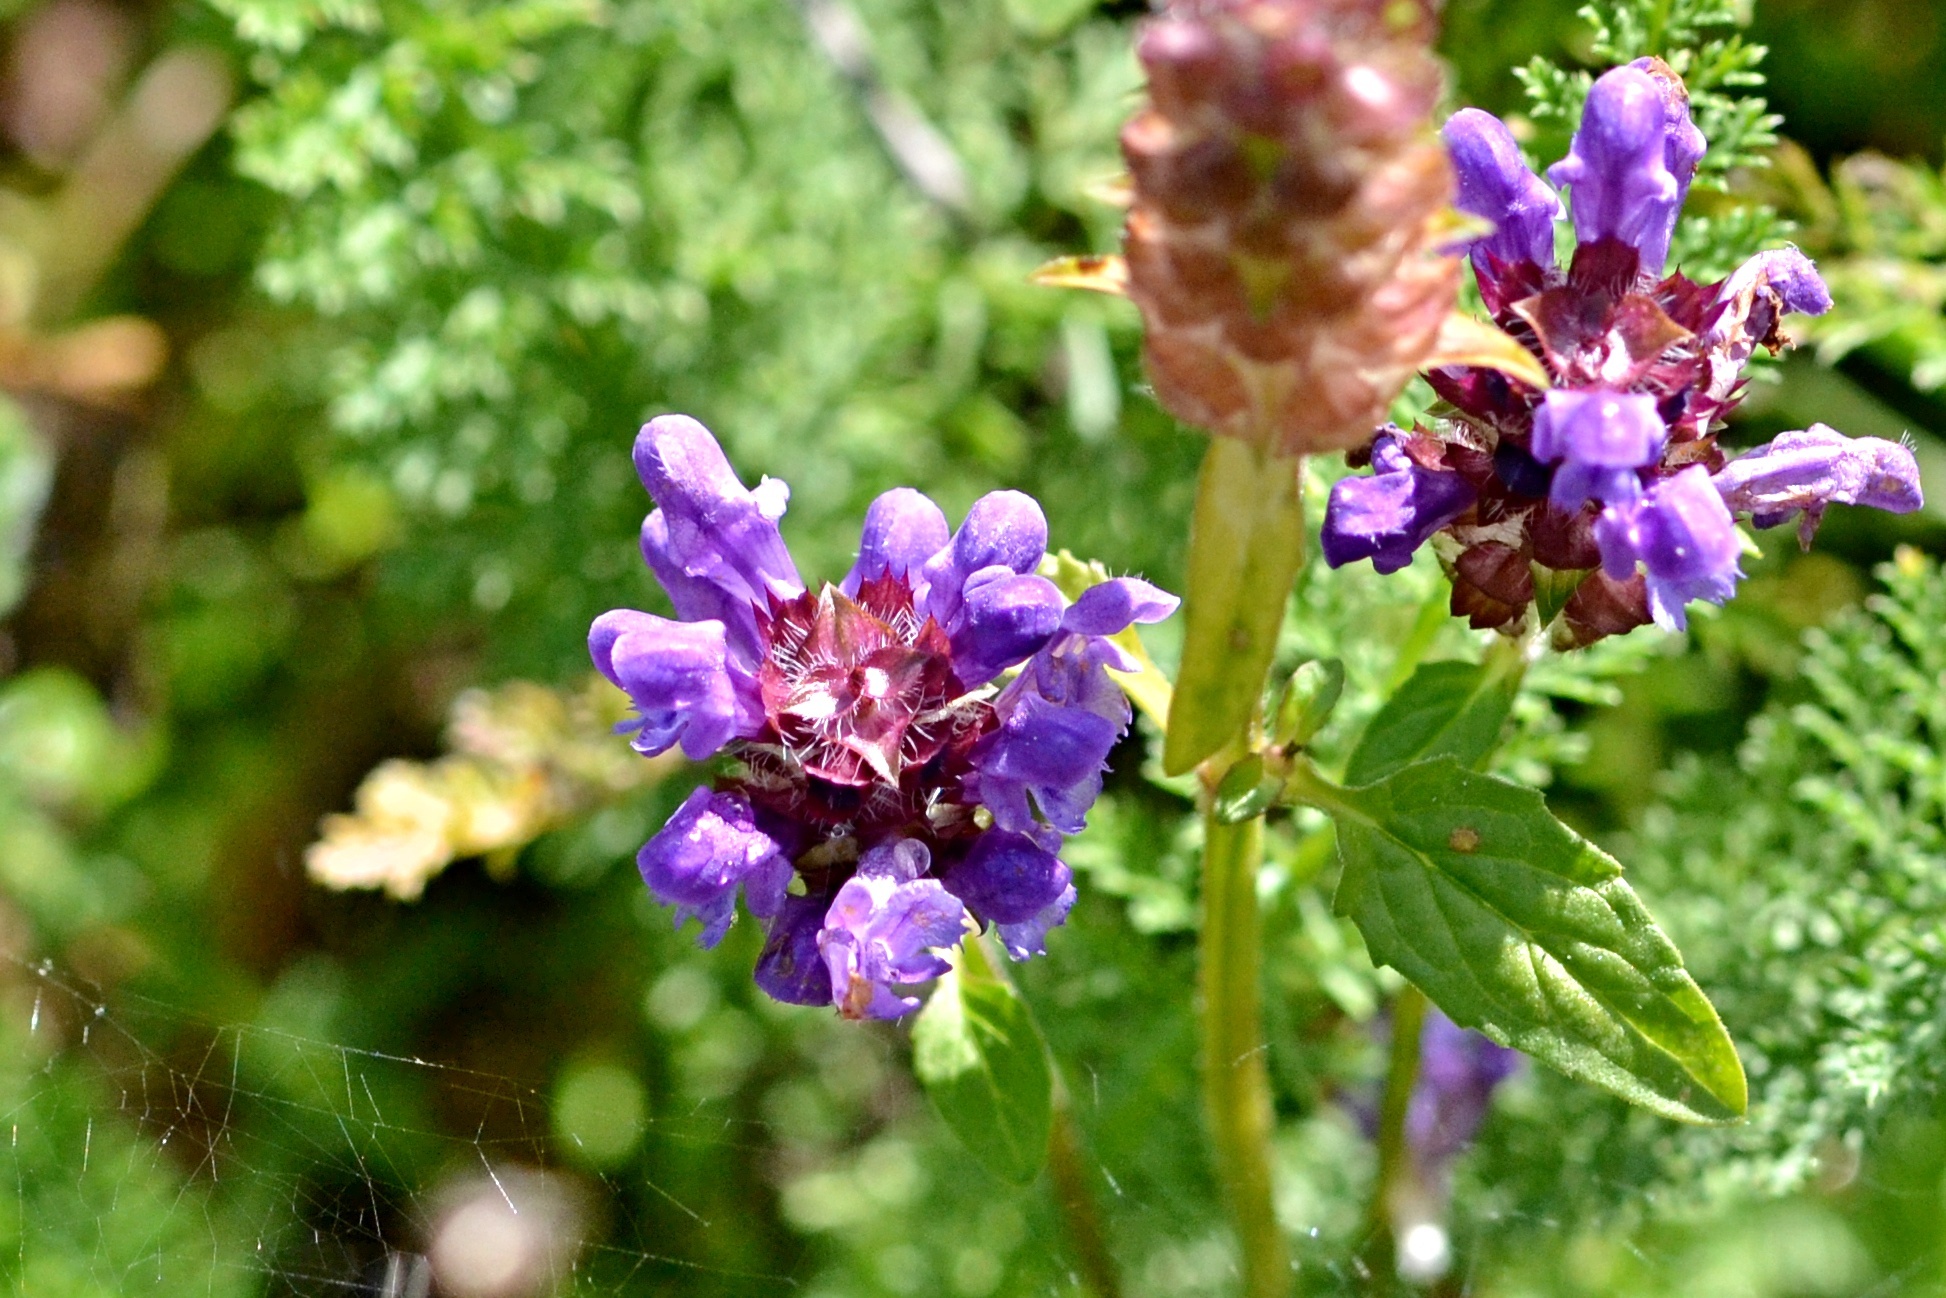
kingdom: Plantae
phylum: Tracheophyta
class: Magnoliopsida
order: Lamiales
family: Lamiaceae
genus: Prunella
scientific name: Prunella vulgaris
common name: Heal-all
